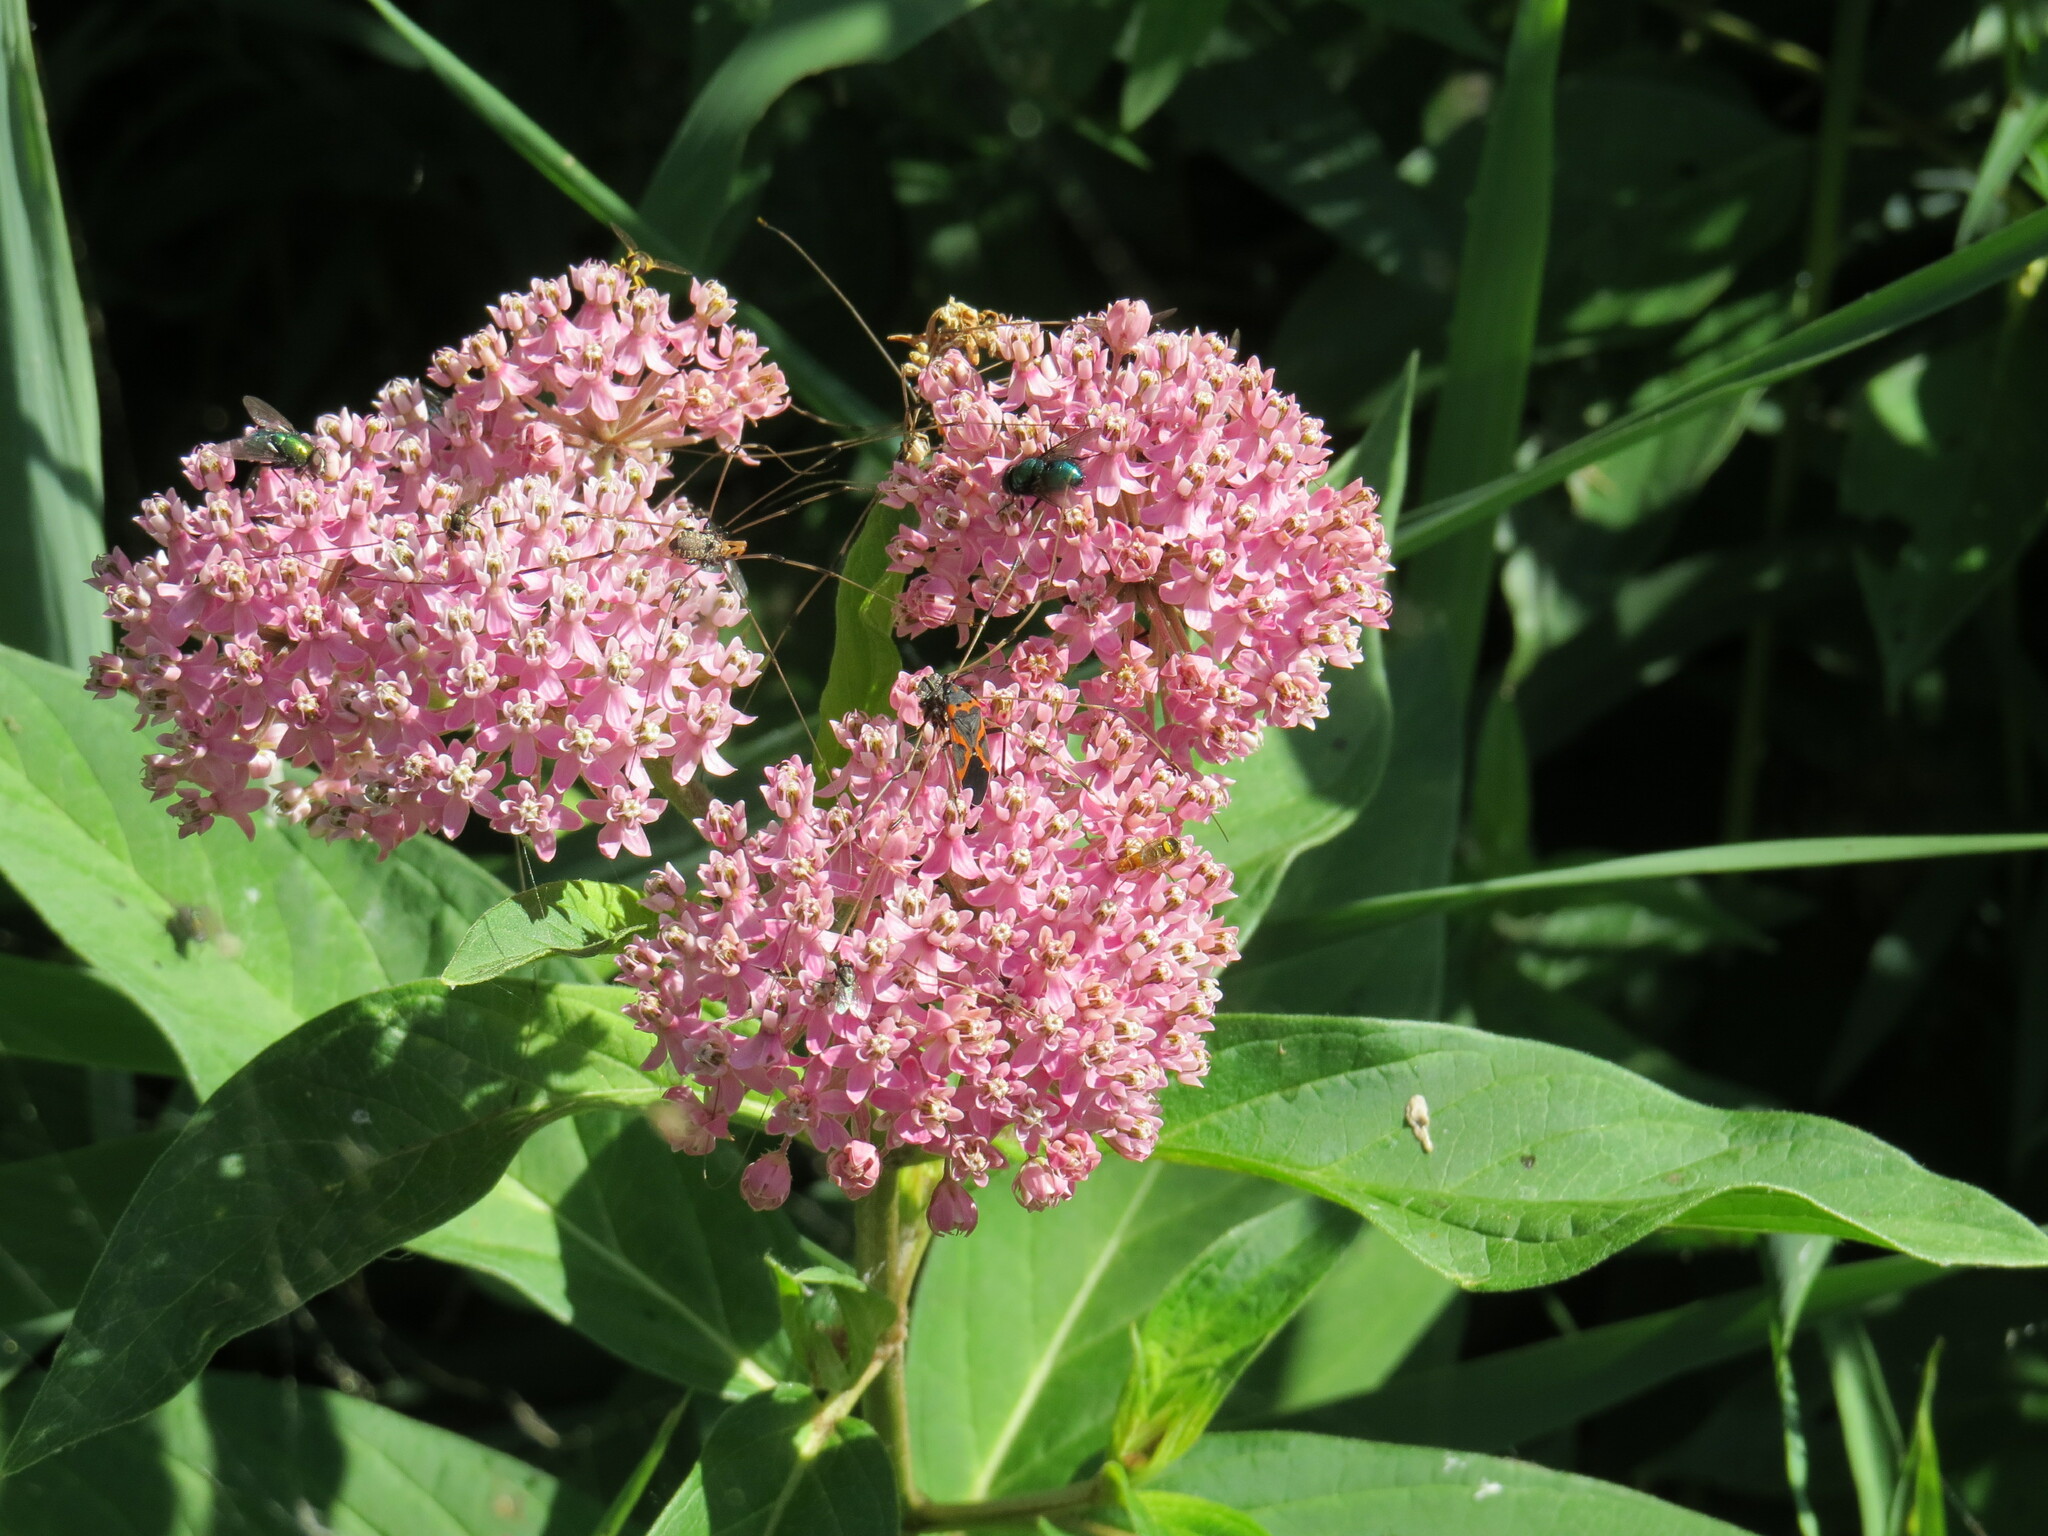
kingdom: Plantae
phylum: Tracheophyta
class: Magnoliopsida
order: Gentianales
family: Apocynaceae
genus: Asclepias
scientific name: Asclepias incarnata
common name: Swamp milkweed
